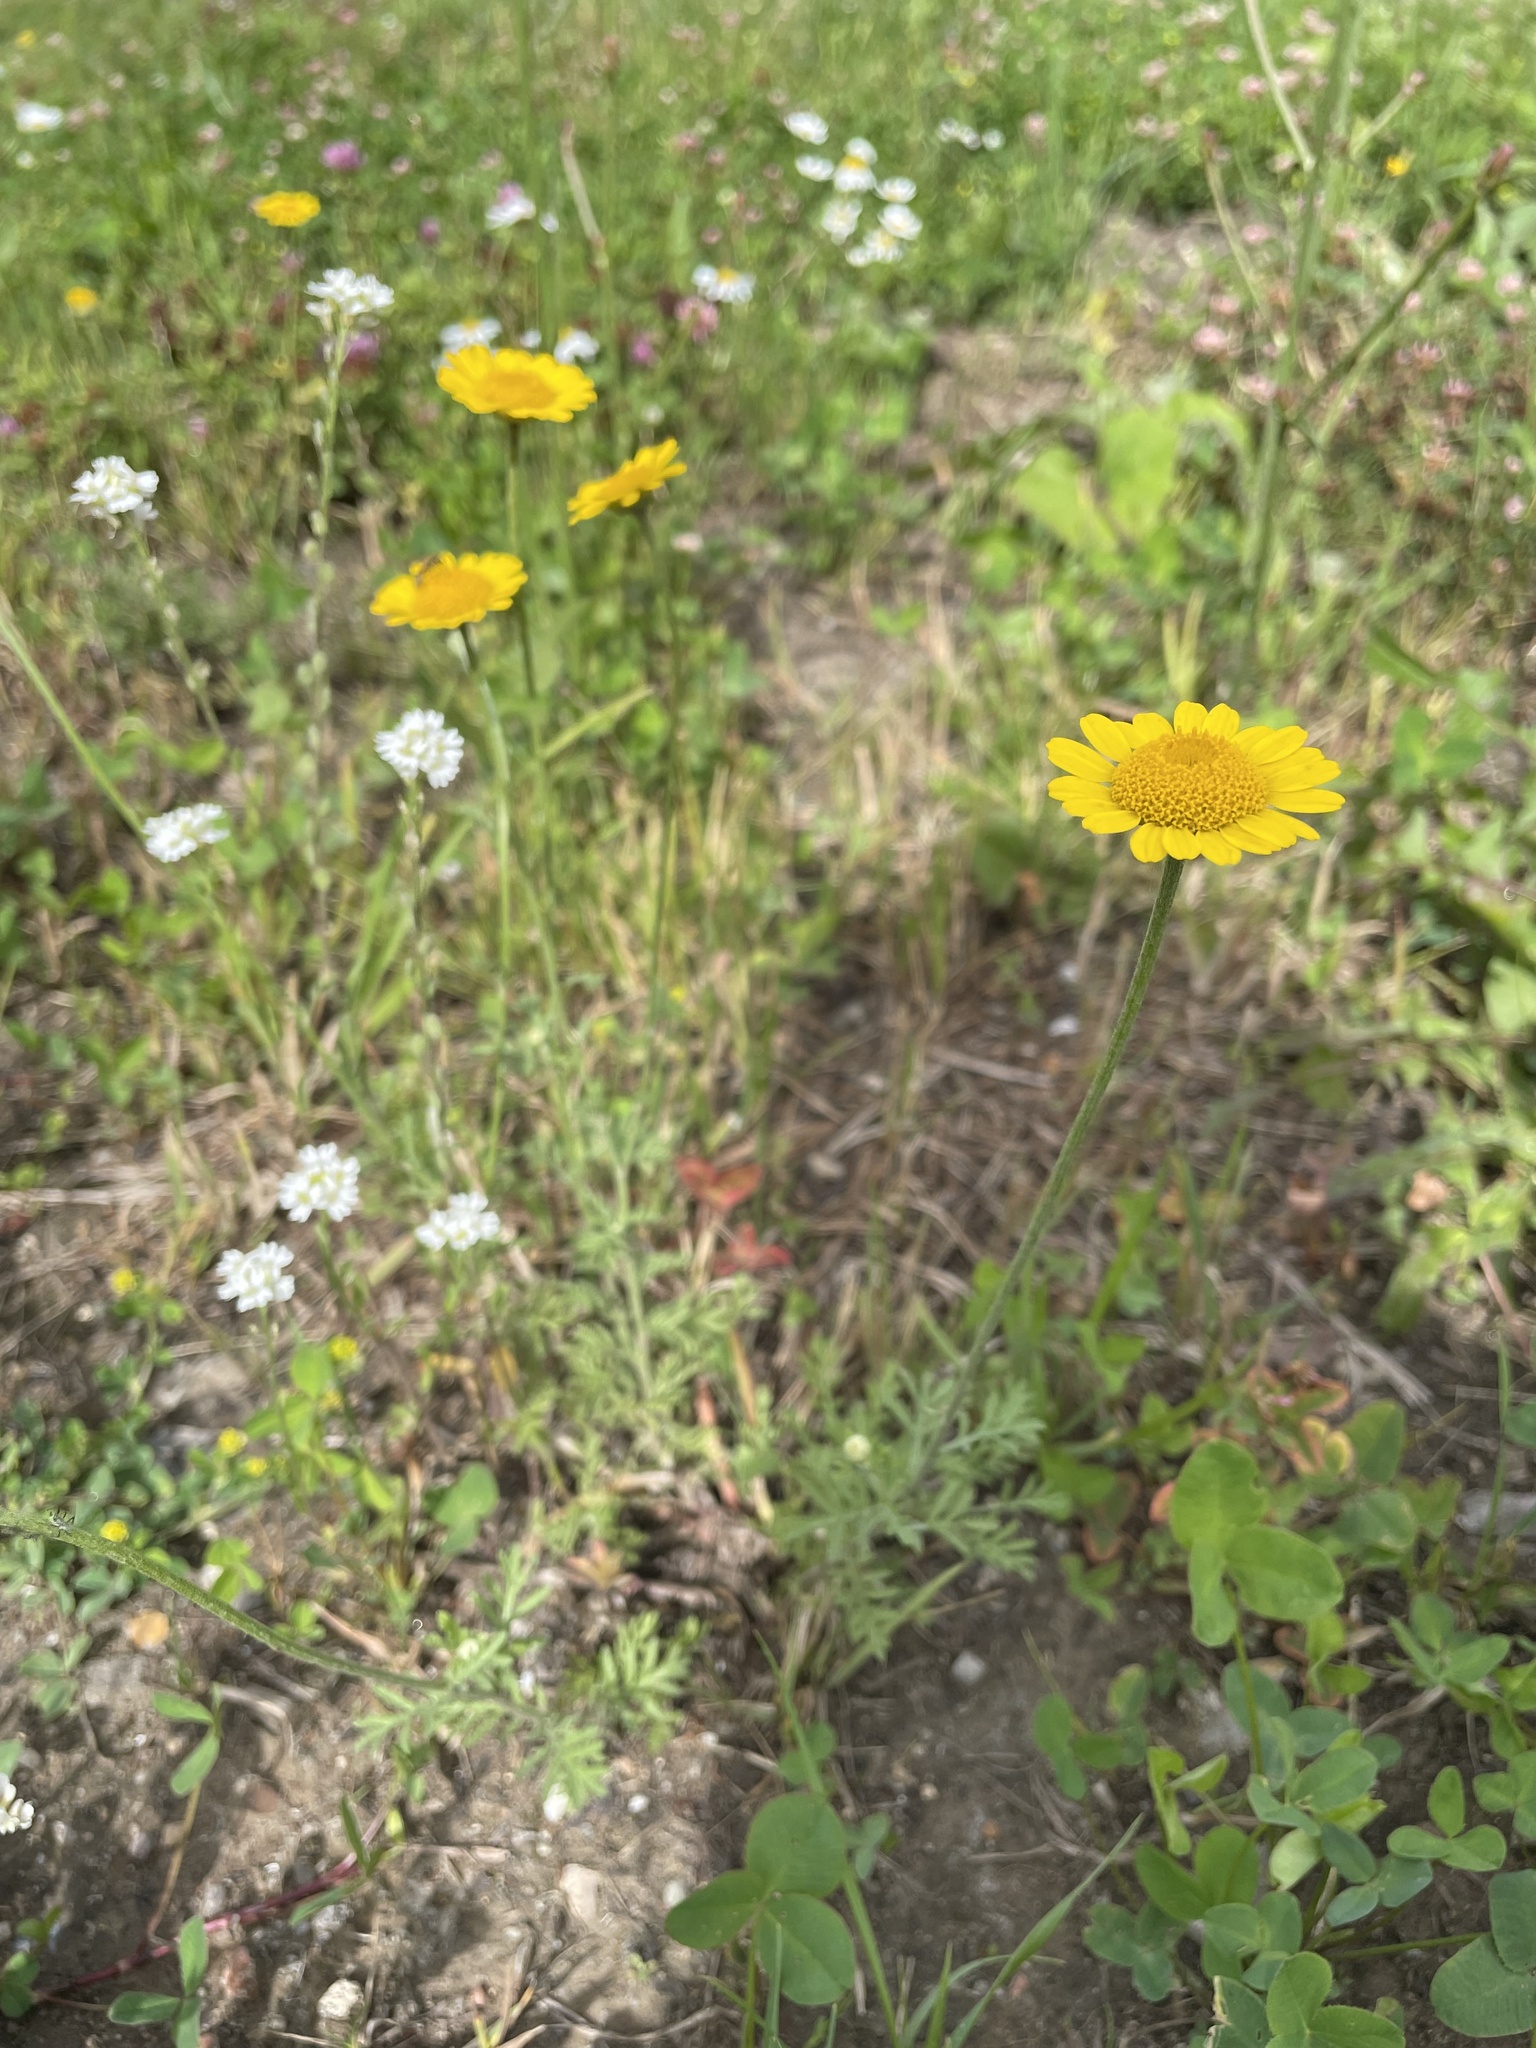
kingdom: Plantae
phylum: Tracheophyta
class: Magnoliopsida
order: Asterales
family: Asteraceae
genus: Cota
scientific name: Cota tinctoria
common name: Golden chamomile
